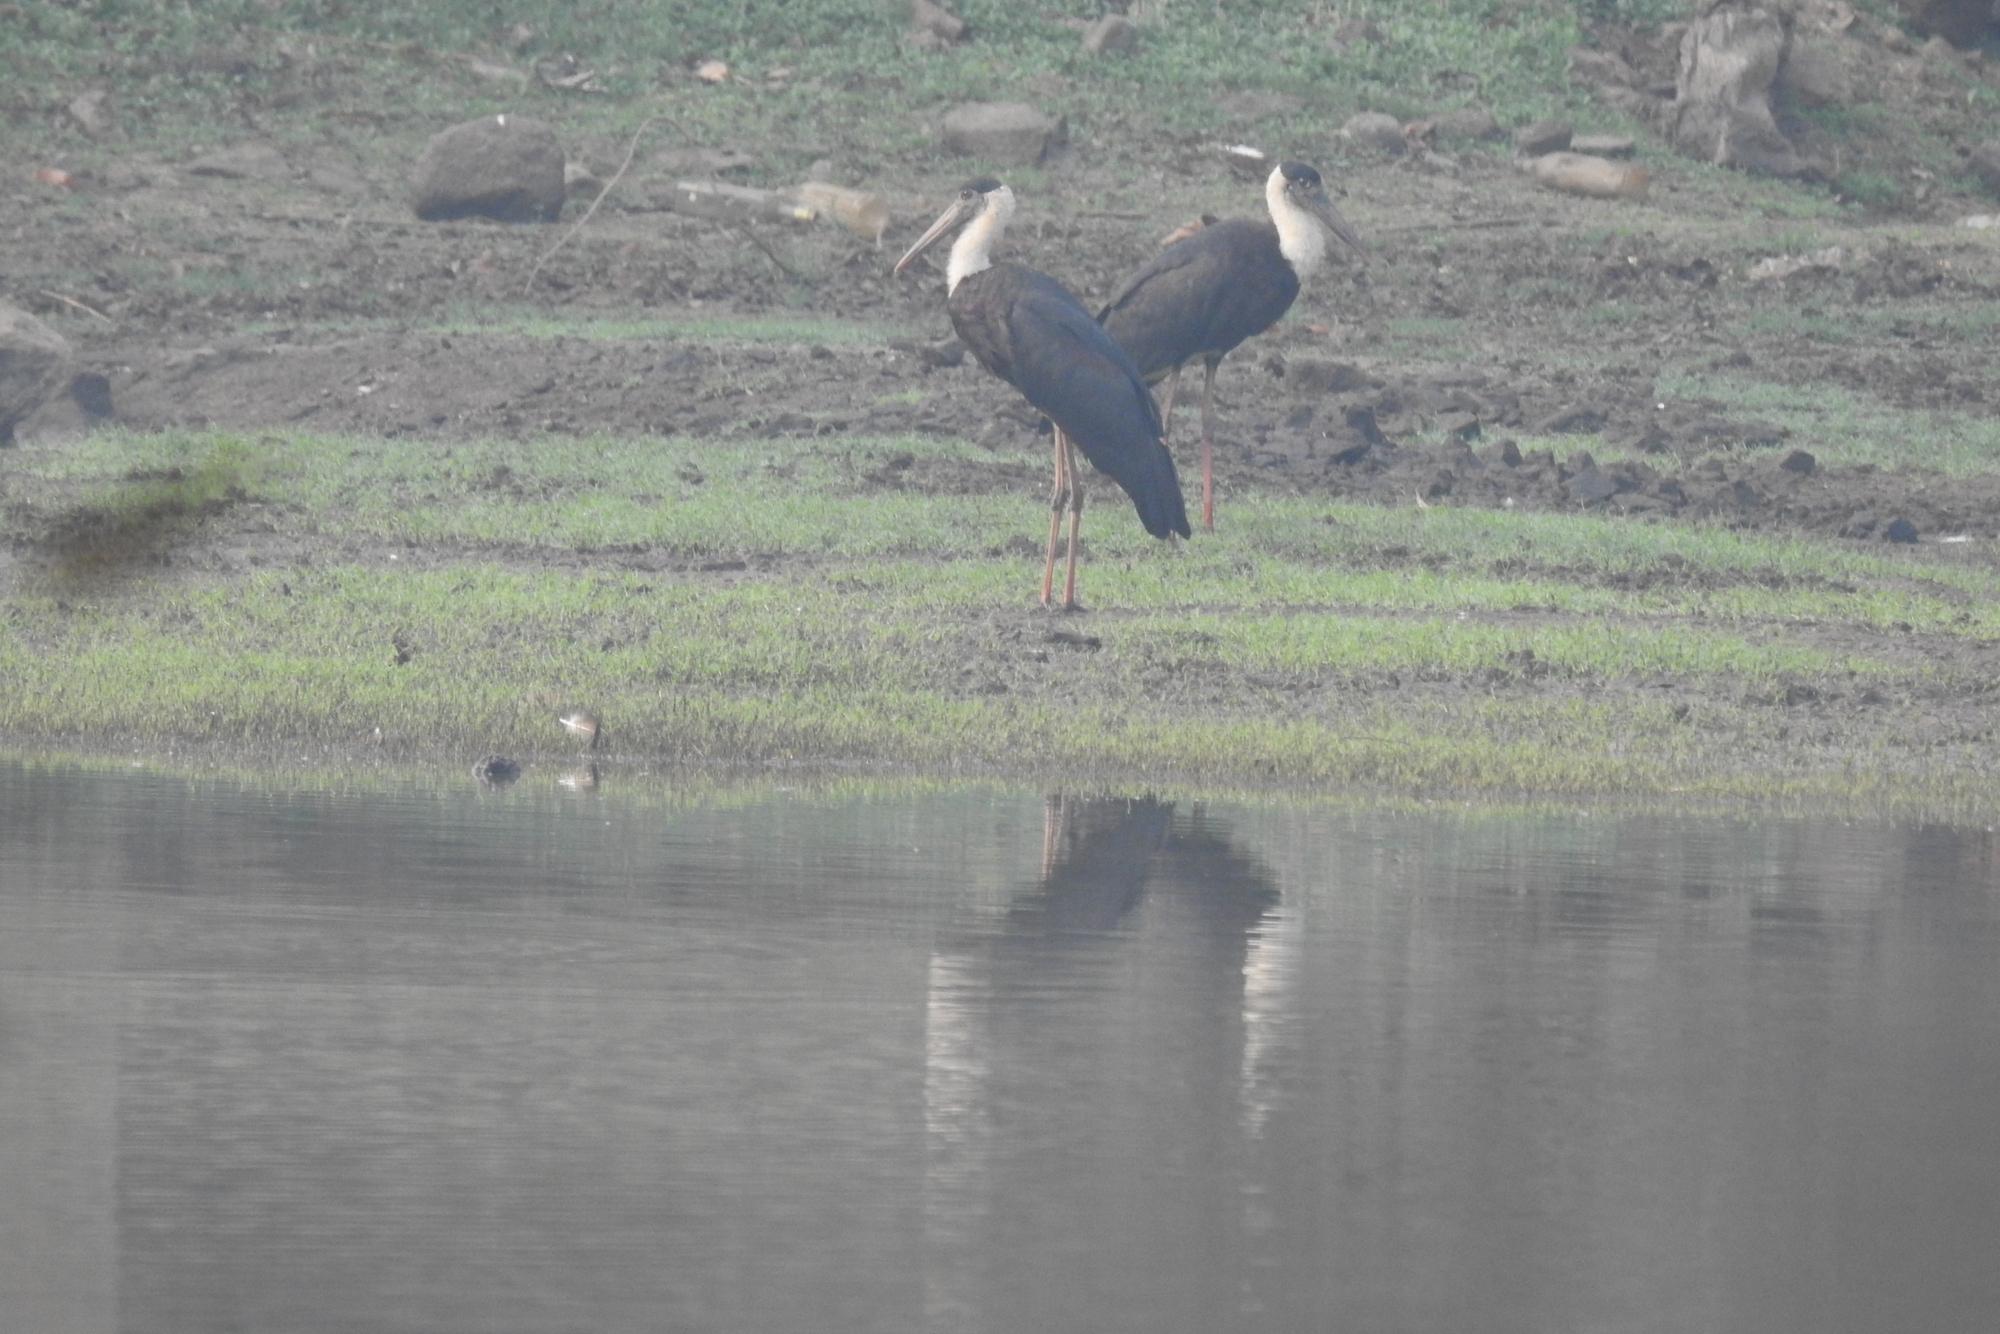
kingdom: Animalia
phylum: Chordata
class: Aves
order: Ciconiiformes
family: Ciconiidae
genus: Ciconia
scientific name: Ciconia episcopus
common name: Woolly-necked stork
